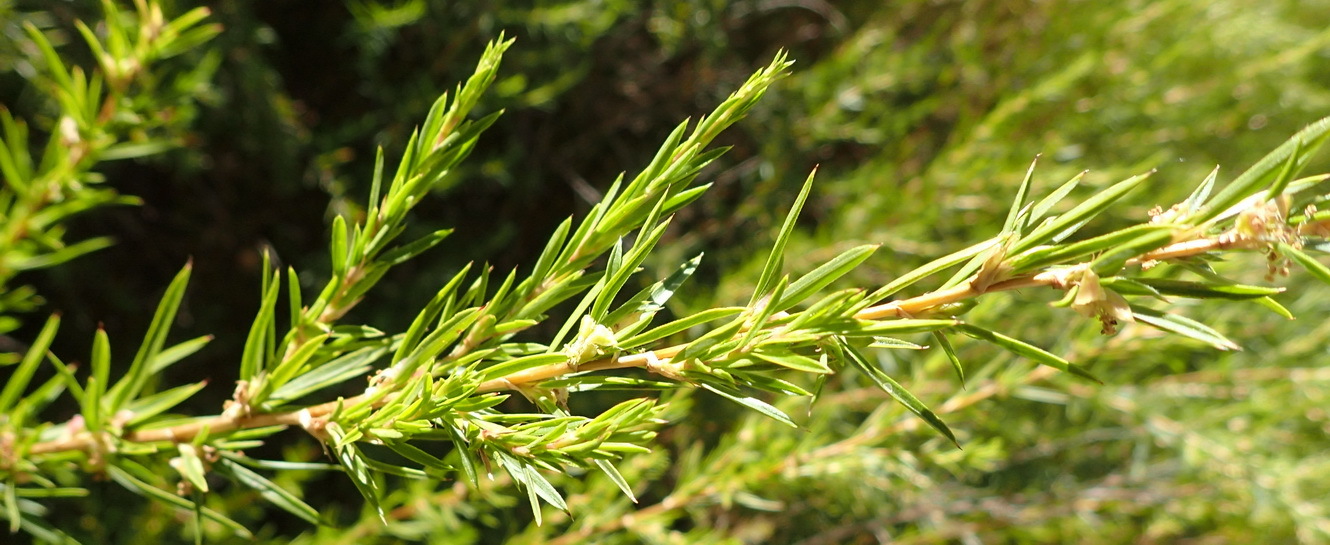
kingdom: Plantae
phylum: Tracheophyta
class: Magnoliopsida
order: Rosales
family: Rosaceae
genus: Cliffortia
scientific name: Cliffortia strobilifera
